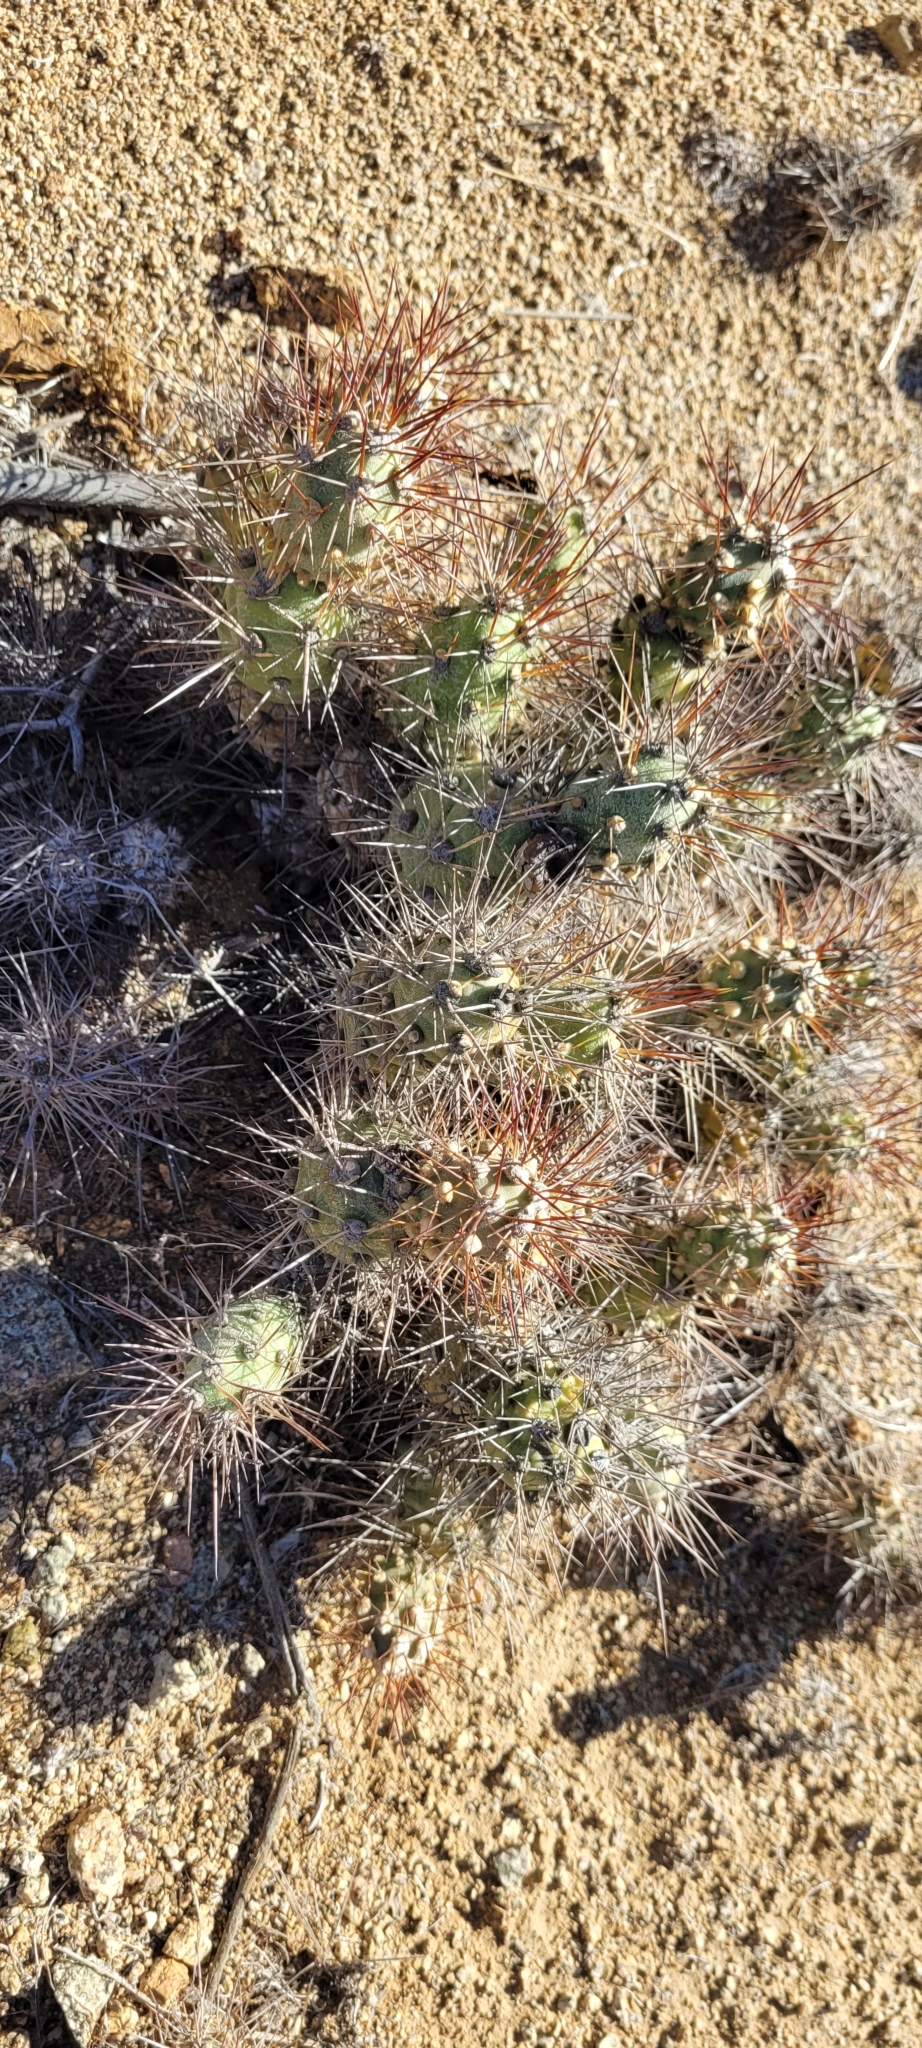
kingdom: Plantae
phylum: Tracheophyta
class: Magnoliopsida
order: Caryophyllales
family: Cactaceae
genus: Cumulopuntia
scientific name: Cumulopuntia leucophaea
